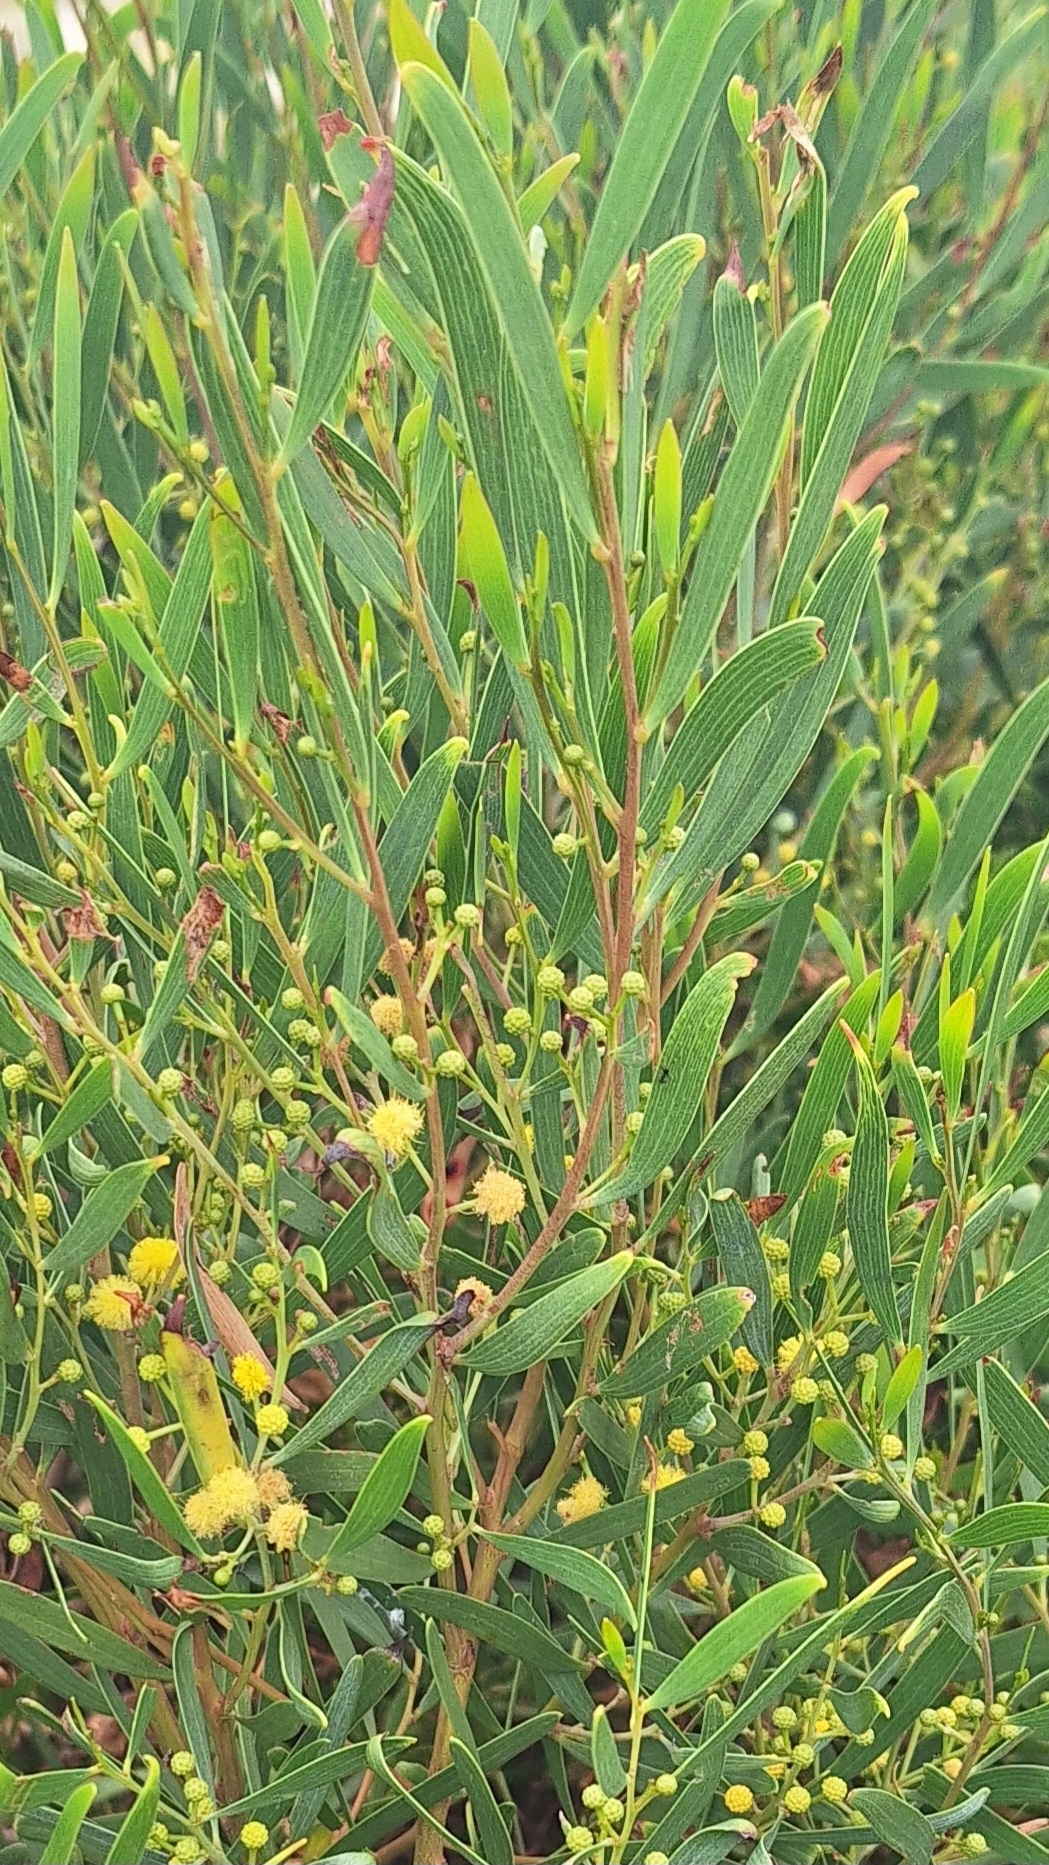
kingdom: Plantae
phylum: Tracheophyta
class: Magnoliopsida
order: Fabales
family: Fabaceae
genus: Acacia
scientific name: Acacia cyclops
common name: Coastal wattle
